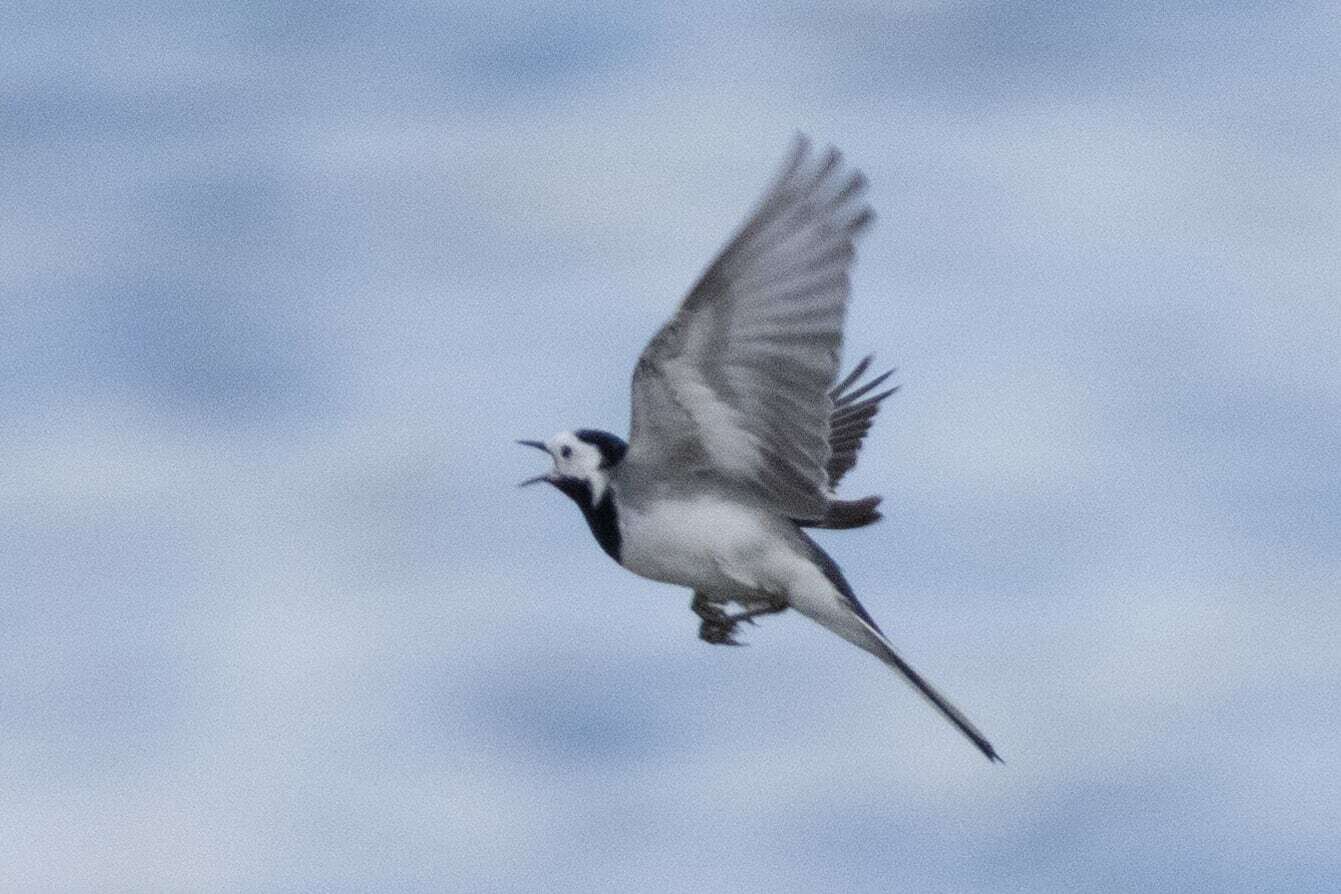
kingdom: Animalia
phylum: Chordata
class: Aves
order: Passeriformes
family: Motacillidae
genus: Motacilla
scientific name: Motacilla alba
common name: White wagtail
